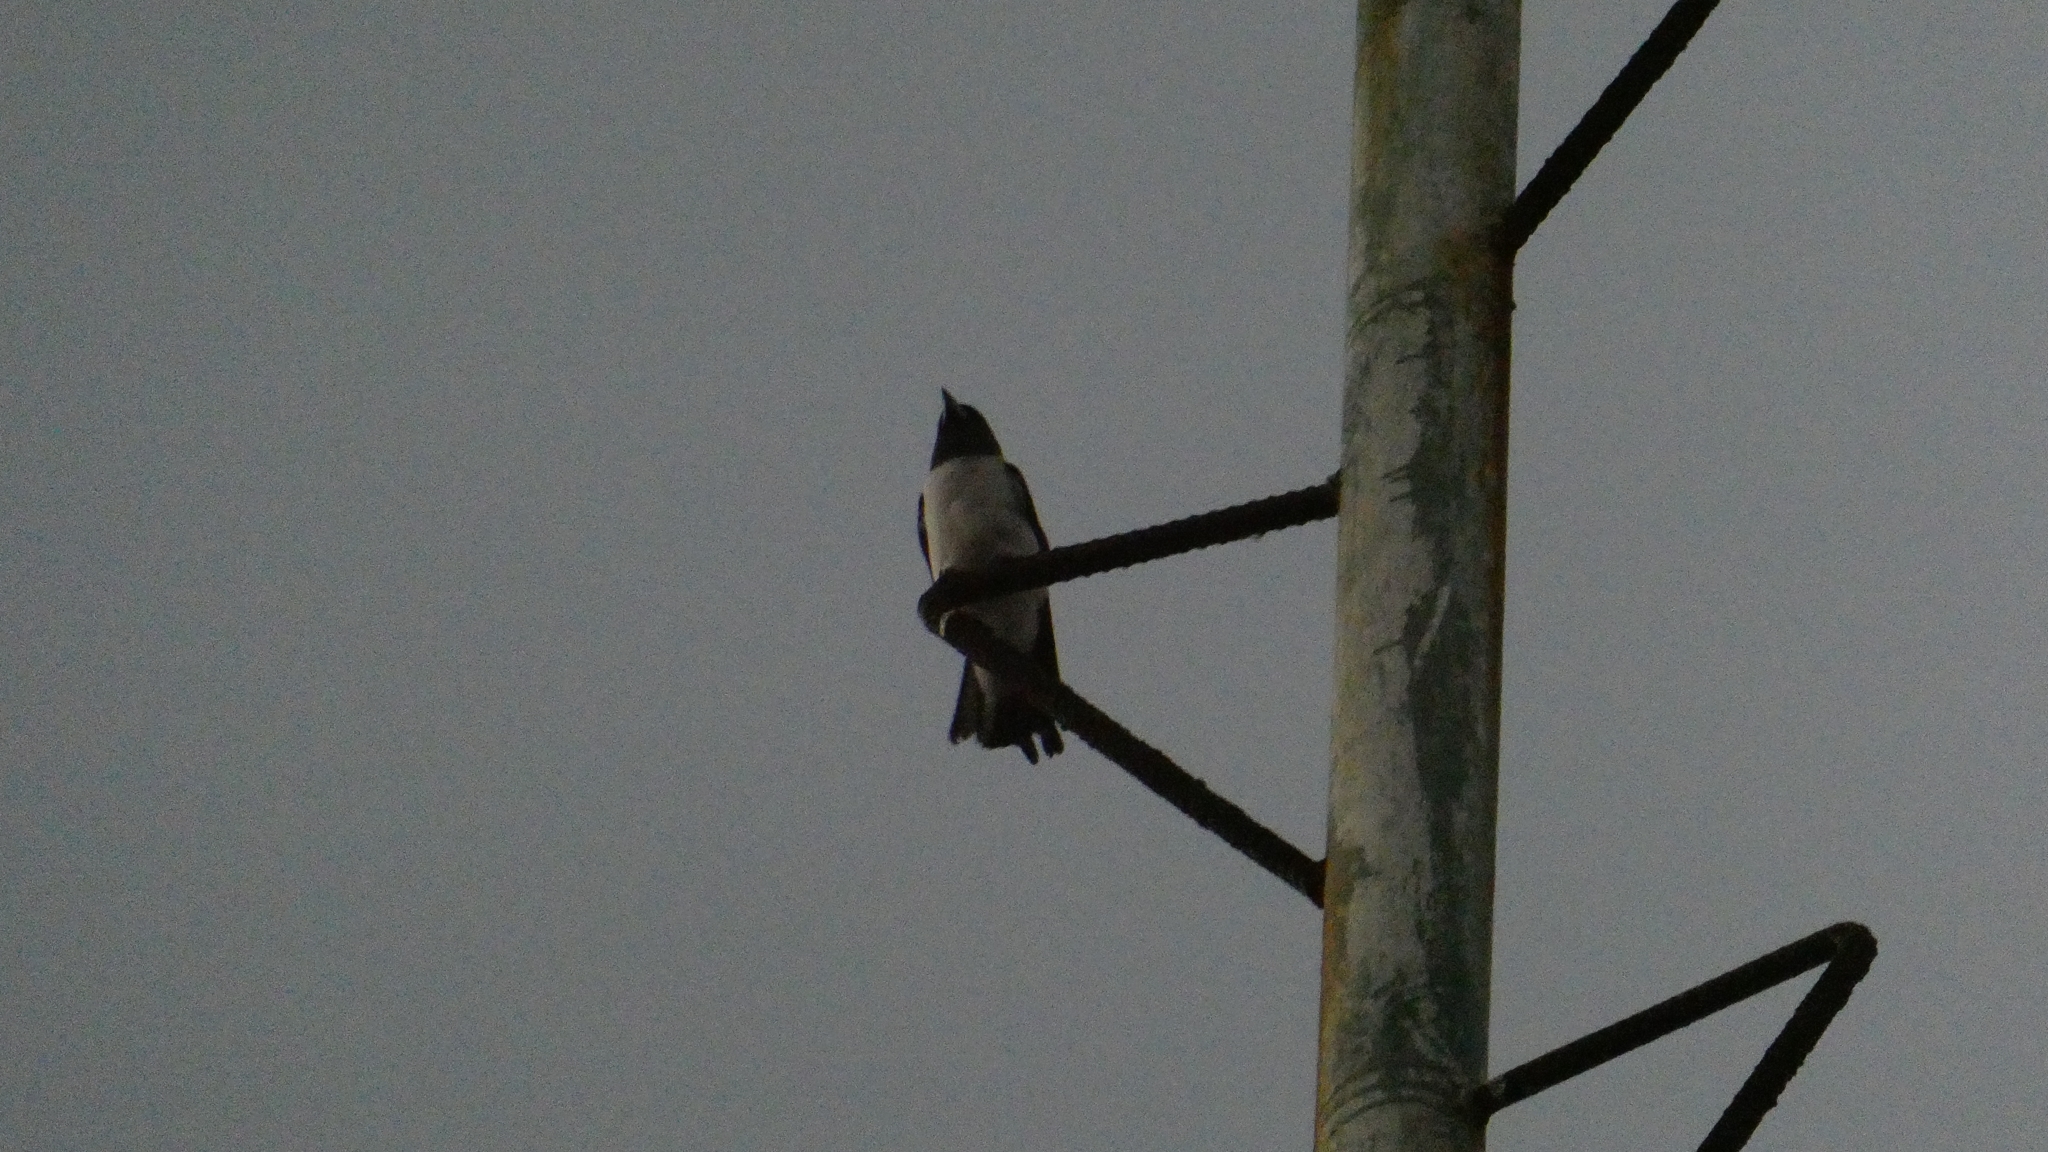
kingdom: Animalia
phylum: Chordata
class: Aves
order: Passeriformes
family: Artamidae
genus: Artamus
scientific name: Artamus leucoryn
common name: White-breasted woodswallow
